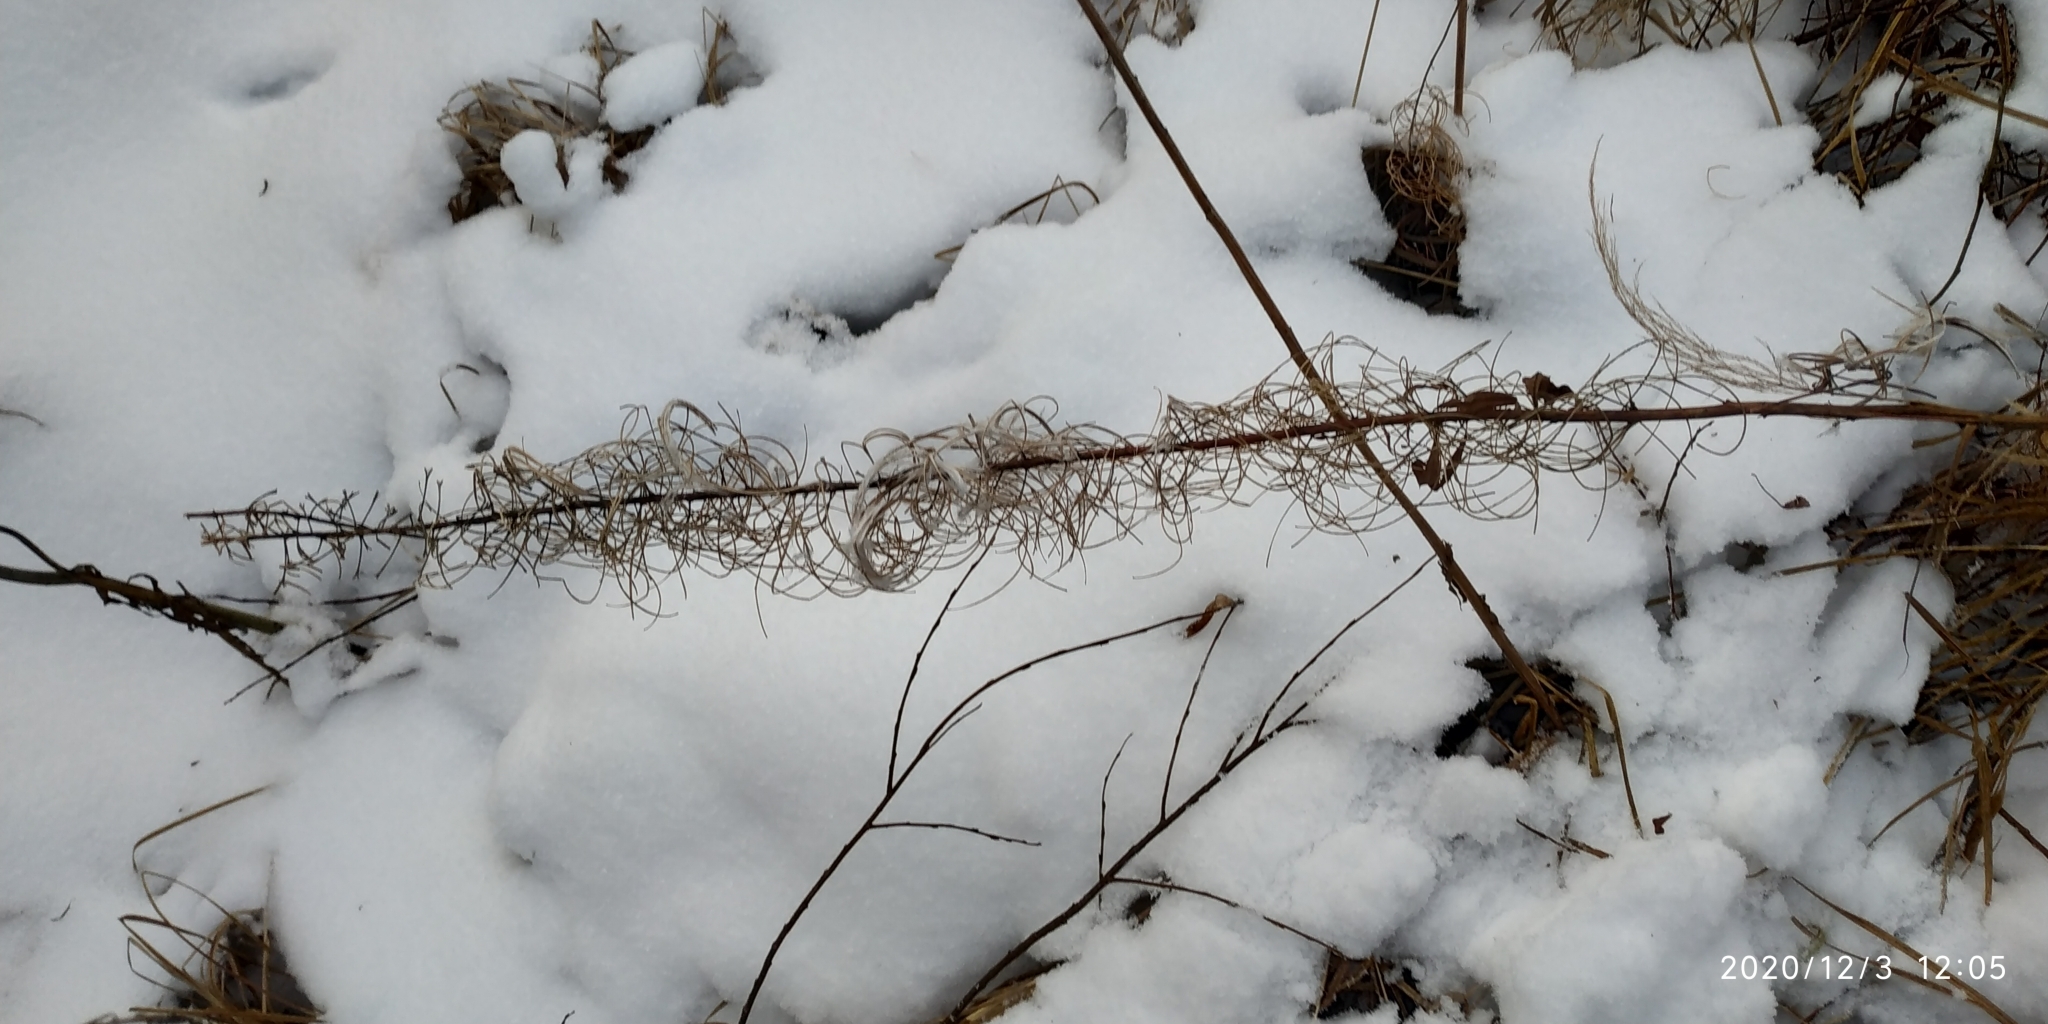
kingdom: Plantae
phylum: Tracheophyta
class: Magnoliopsida
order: Myrtales
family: Onagraceae
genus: Chamaenerion
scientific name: Chamaenerion angustifolium
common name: Fireweed
